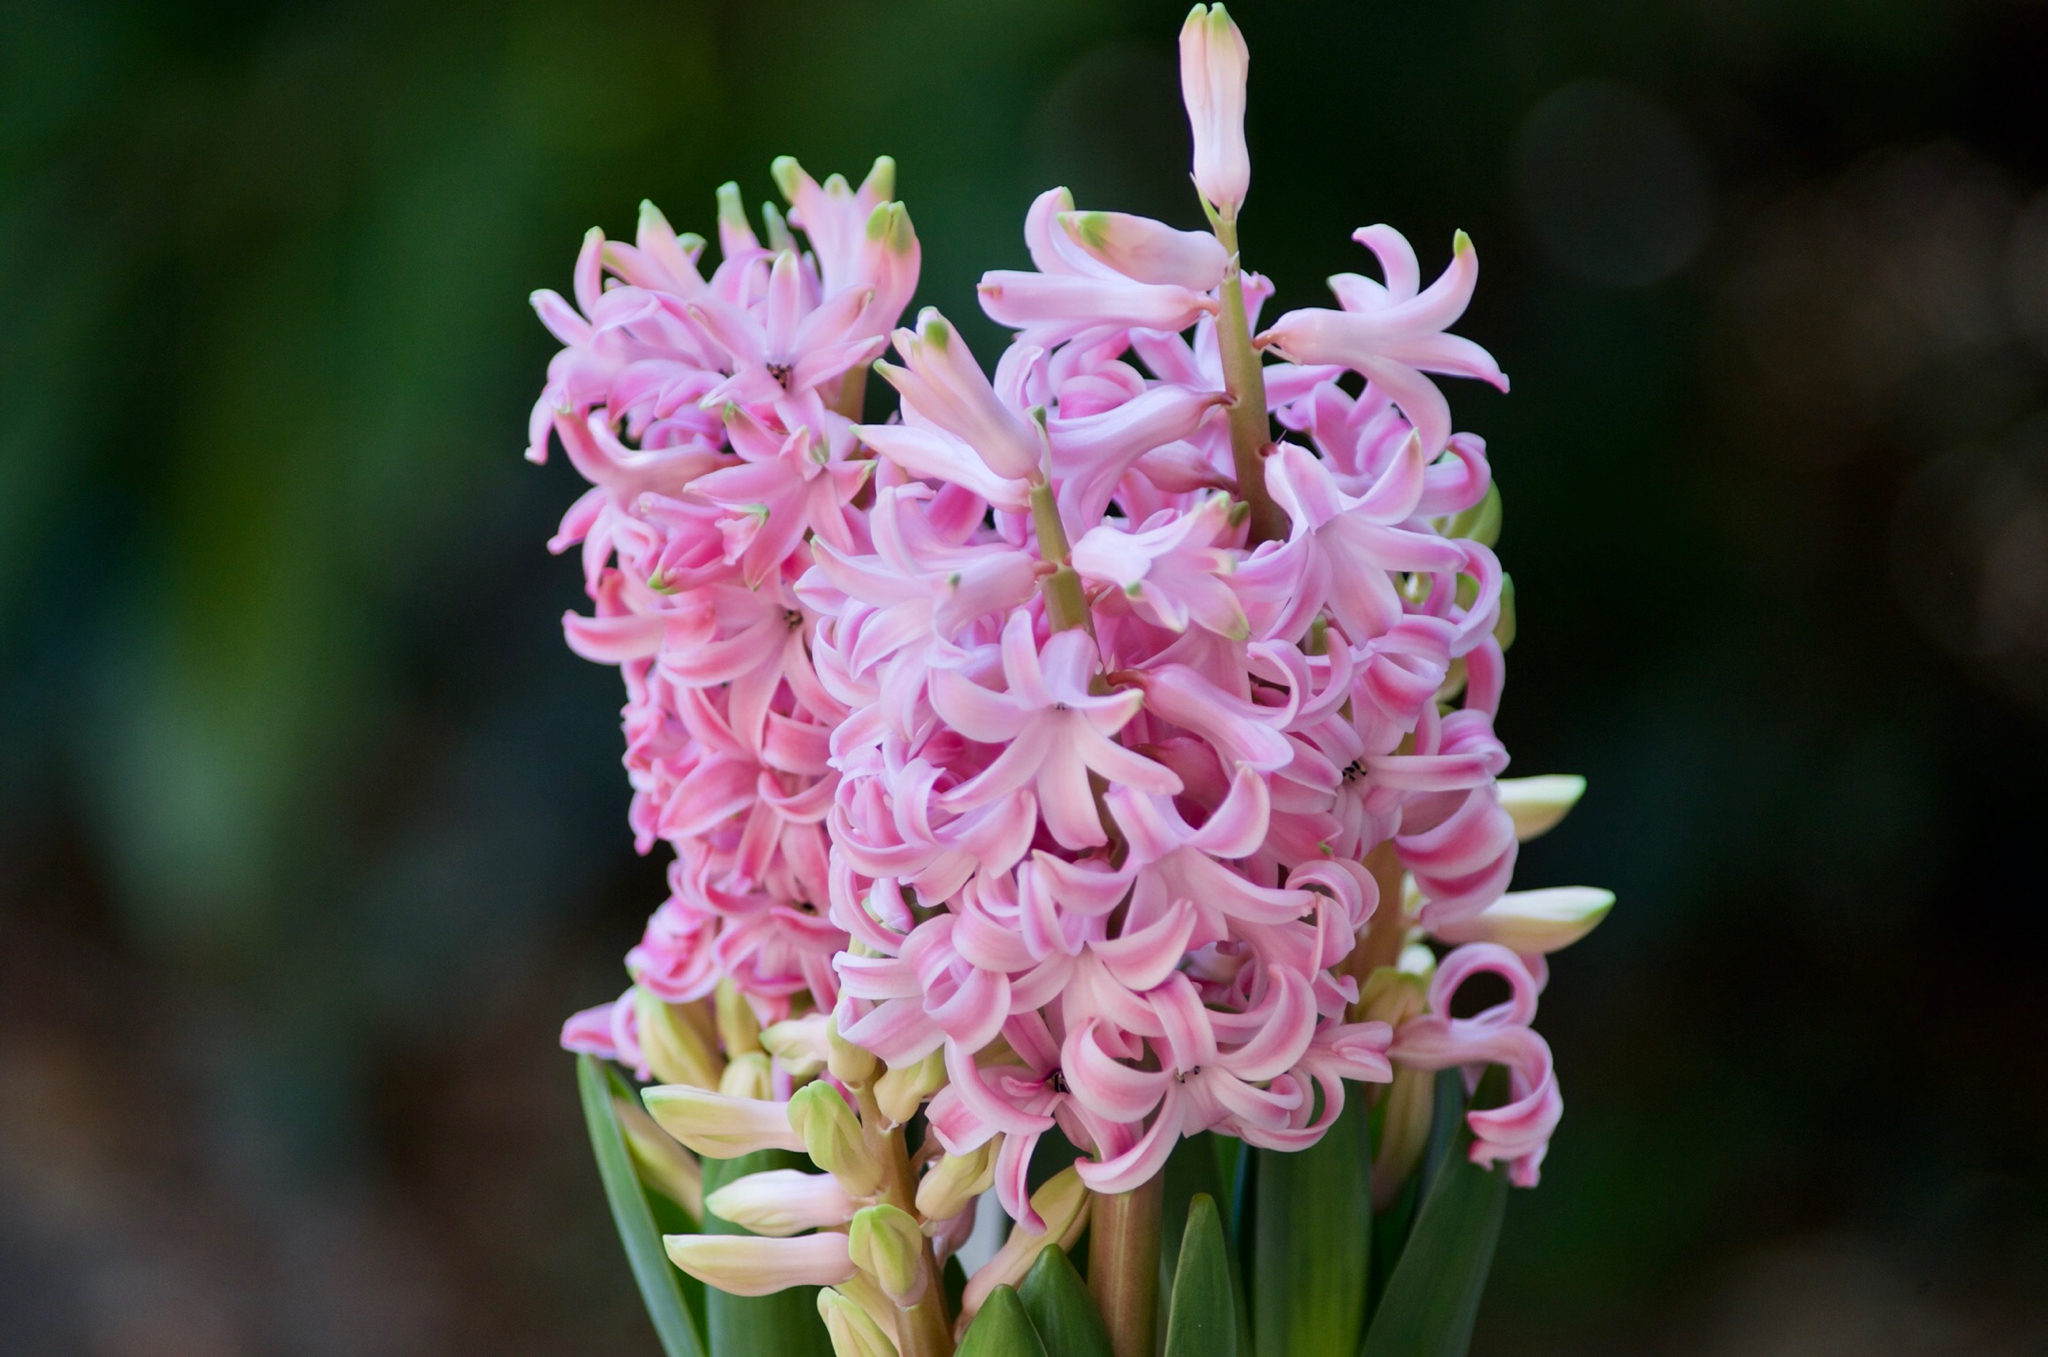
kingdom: Plantae
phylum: Tracheophyta
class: Liliopsida
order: Asparagales
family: Asparagaceae
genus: Hyacinthus
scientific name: Hyacinthus orientalis
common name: Hyacinth
